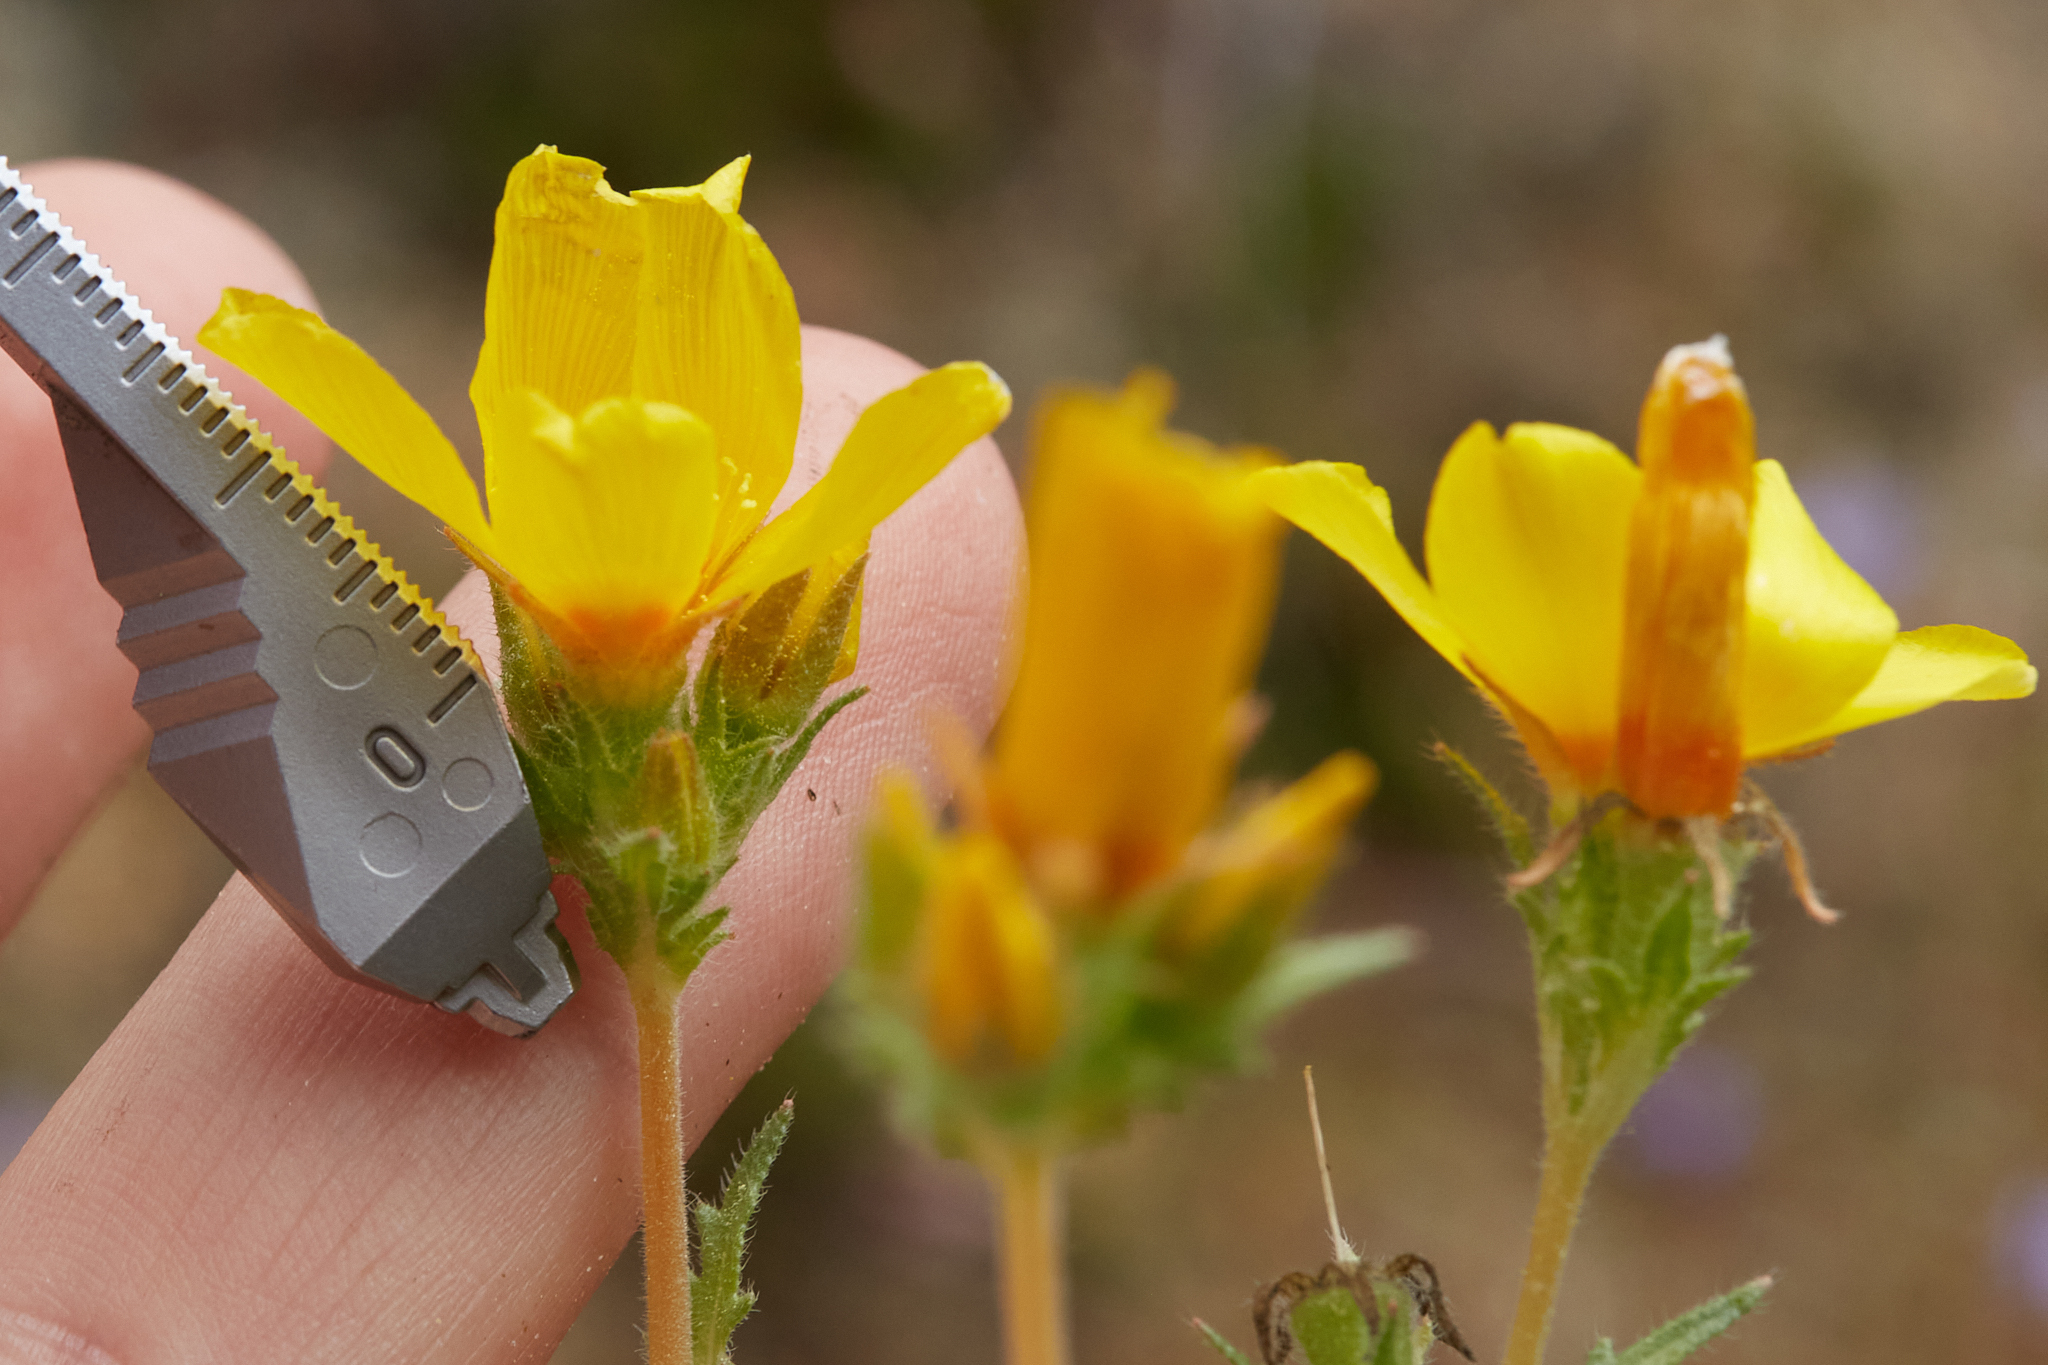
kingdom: Plantae
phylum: Tracheophyta
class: Magnoliopsida
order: Cornales
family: Loasaceae
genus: Mentzelia
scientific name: Mentzelia gracilenta
